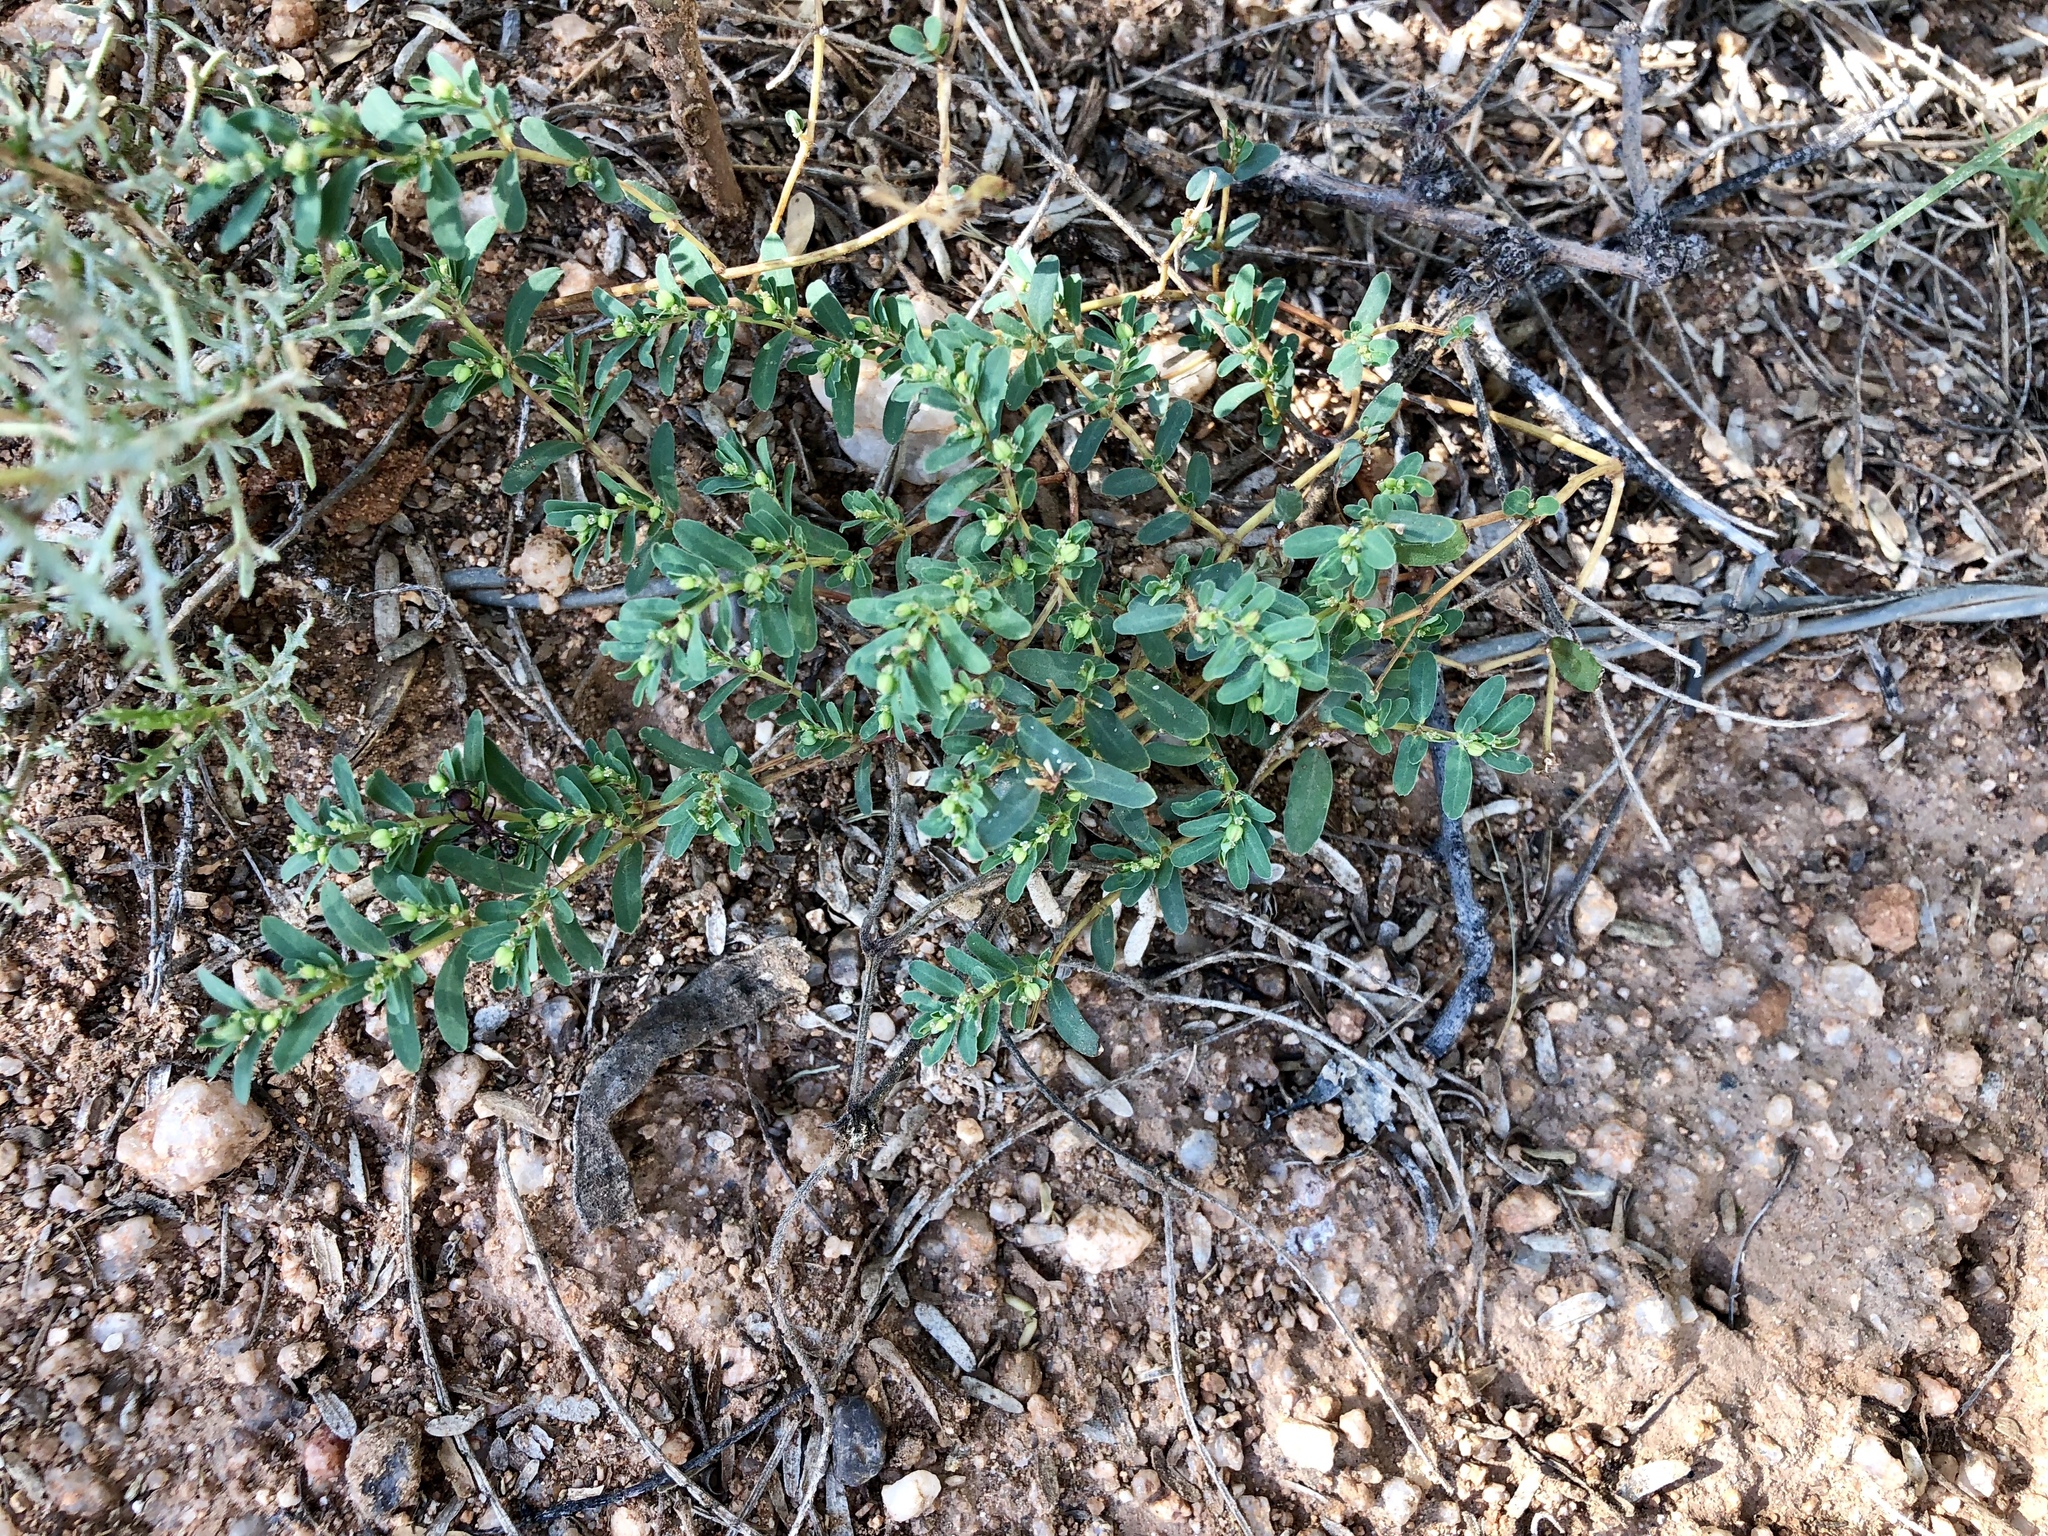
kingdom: Plantae
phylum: Tracheophyta
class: Magnoliopsida
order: Malpighiales
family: Euphorbiaceae
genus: Euphorbia
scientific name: Euphorbia serpillifolia
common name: Thyme-leaf spurge
